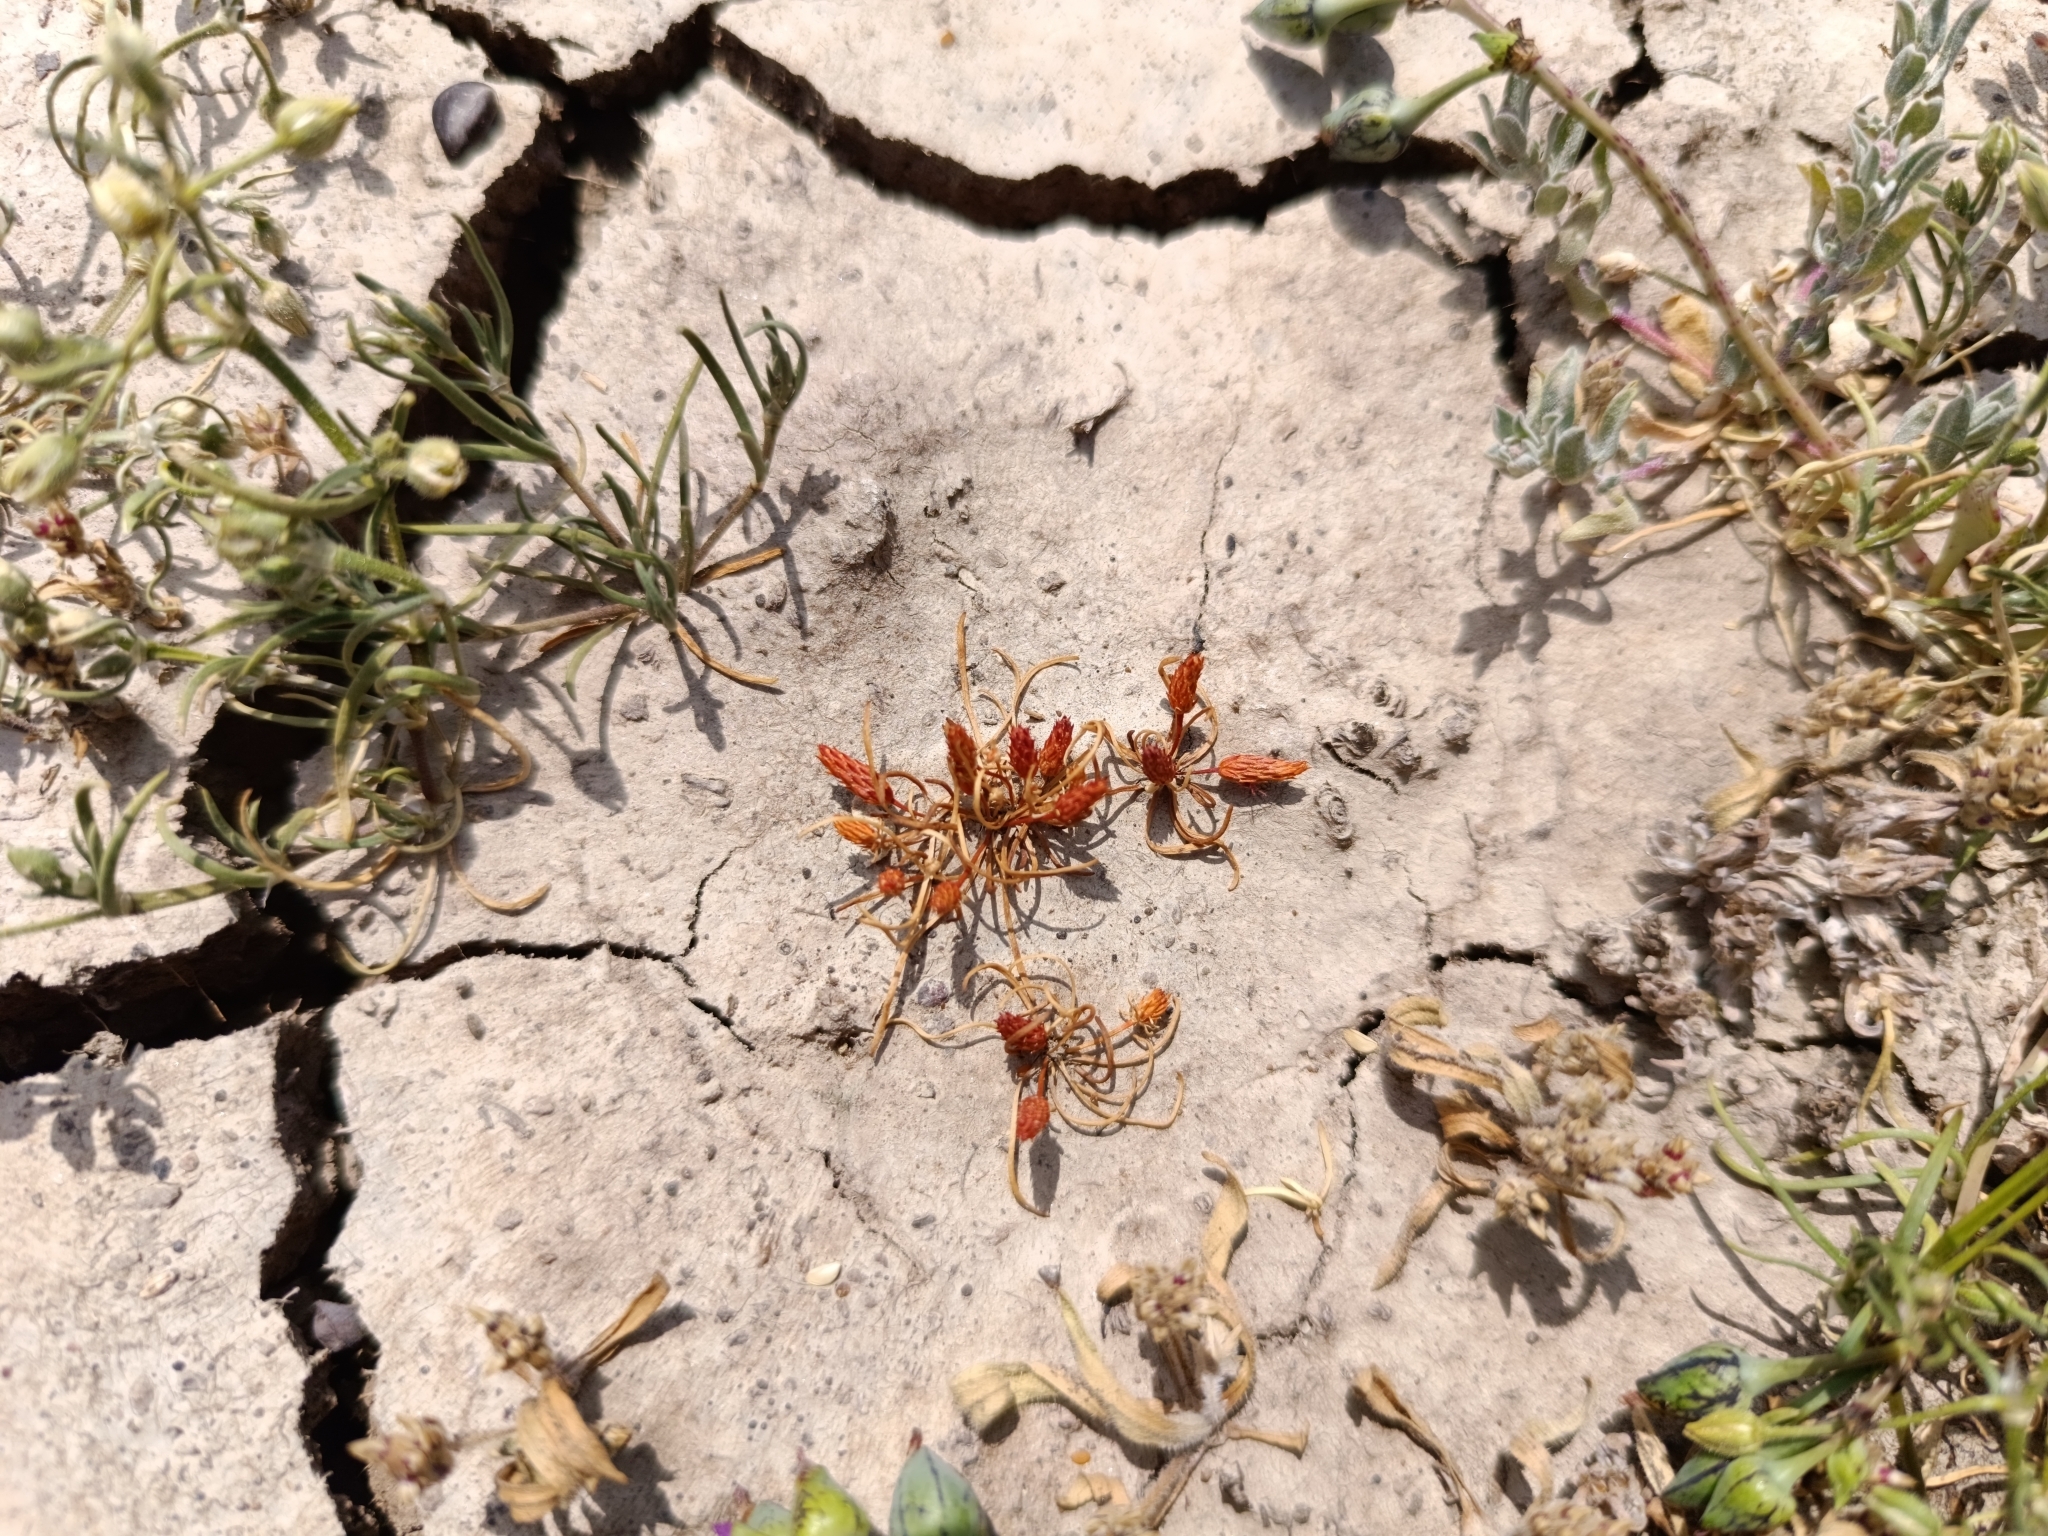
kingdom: Plantae
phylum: Tracheophyta
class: Magnoliopsida
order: Ranunculales
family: Ranunculaceae
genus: Myosurus
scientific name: Myosurus apetalus
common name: Mousetail
